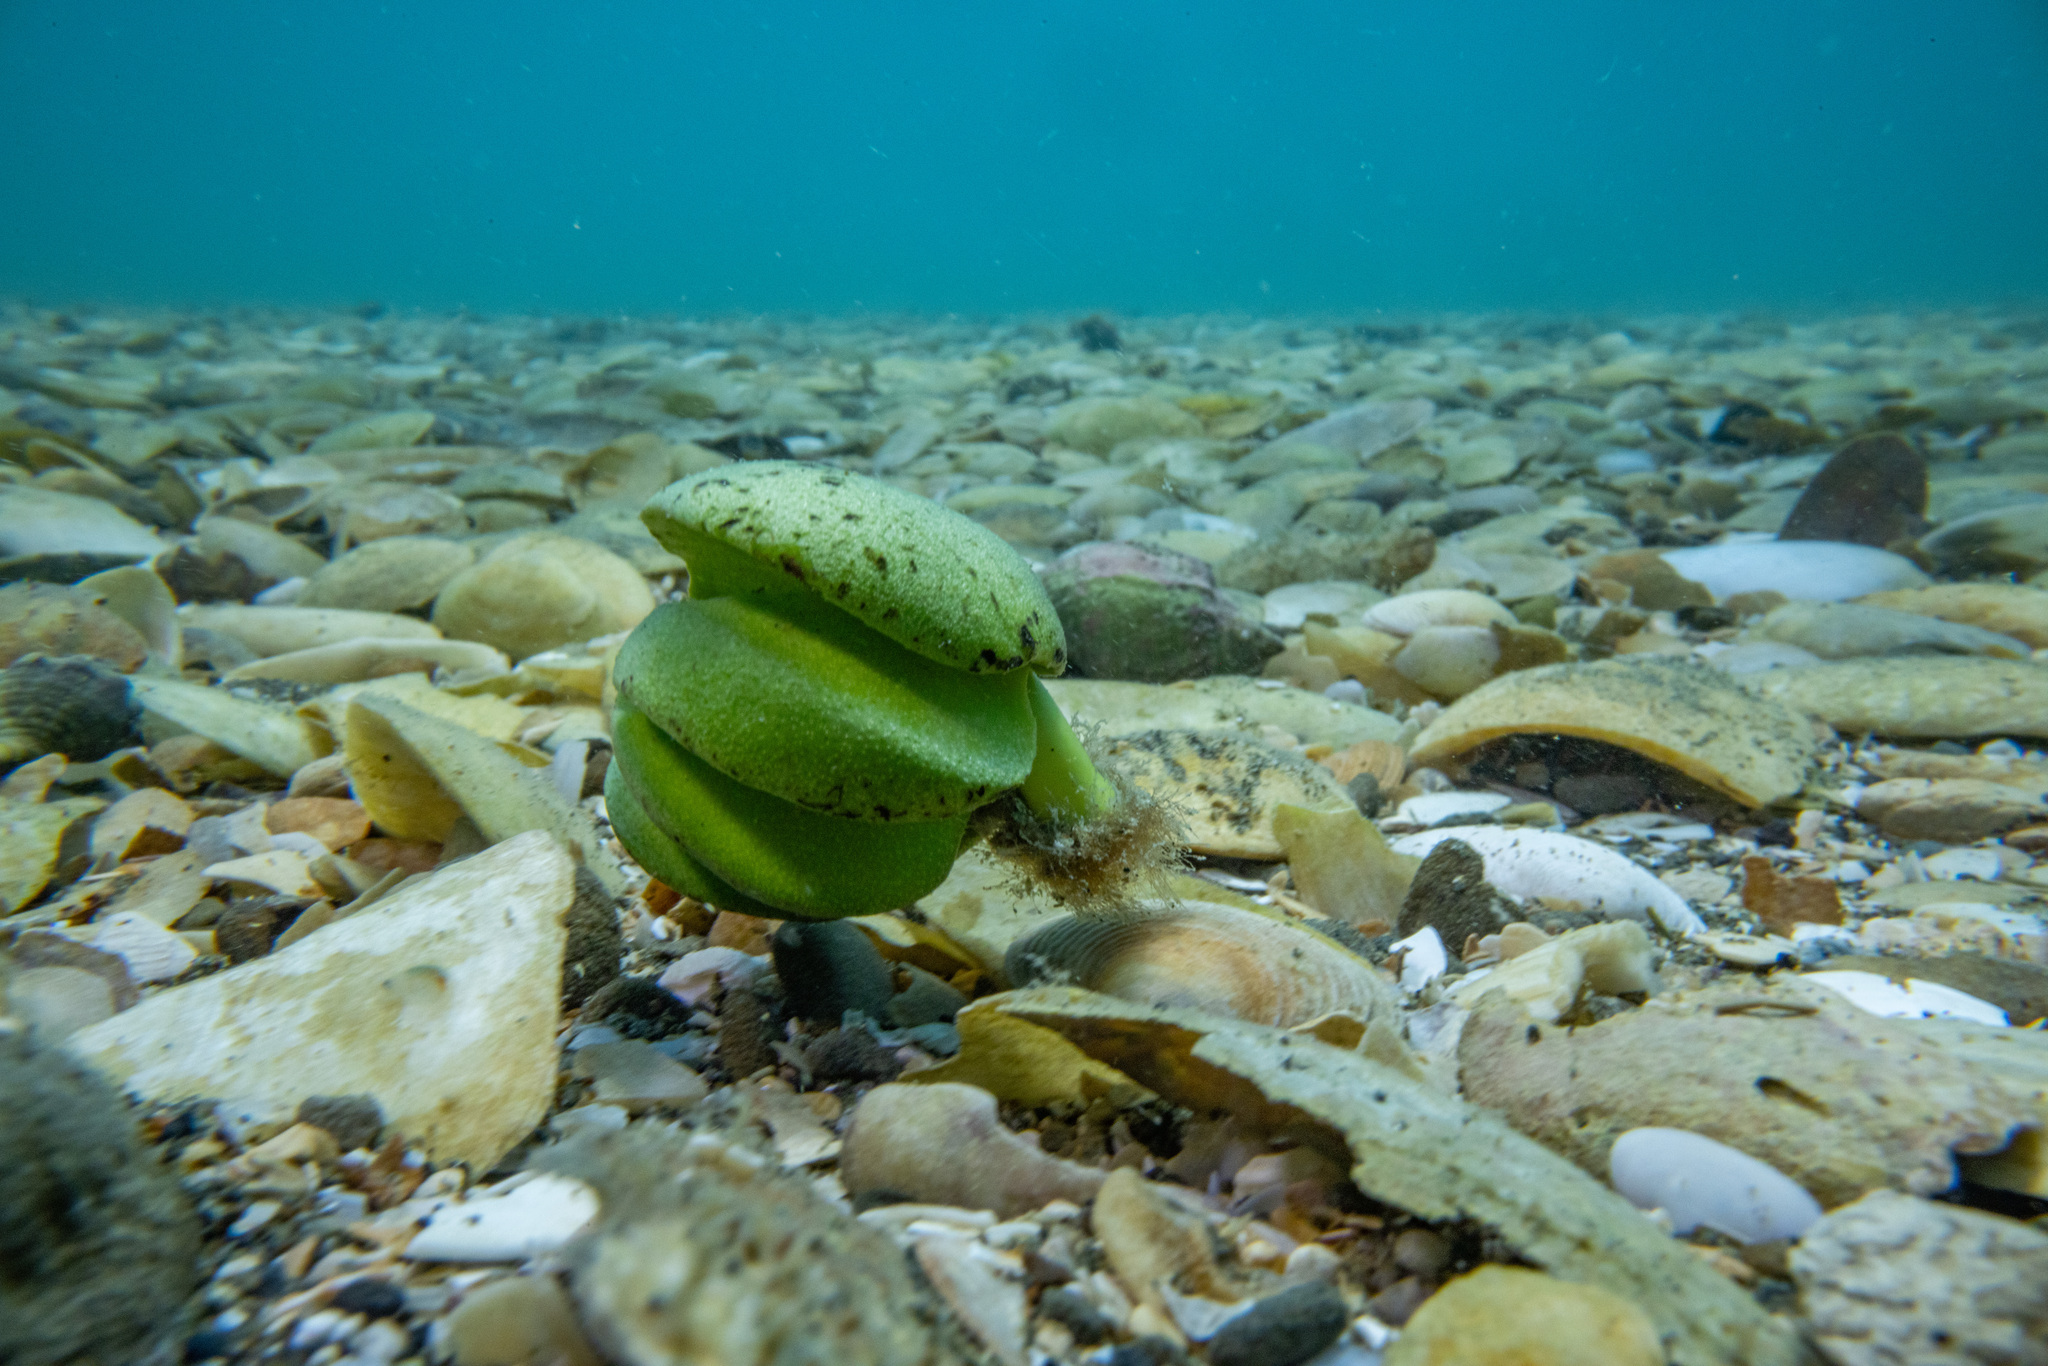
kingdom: Plantae
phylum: Tracheophyta
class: Magnoliopsida
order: Lamiales
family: Acanthaceae
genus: Avicennia
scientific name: Avicennia marina
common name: Gray mangrove
